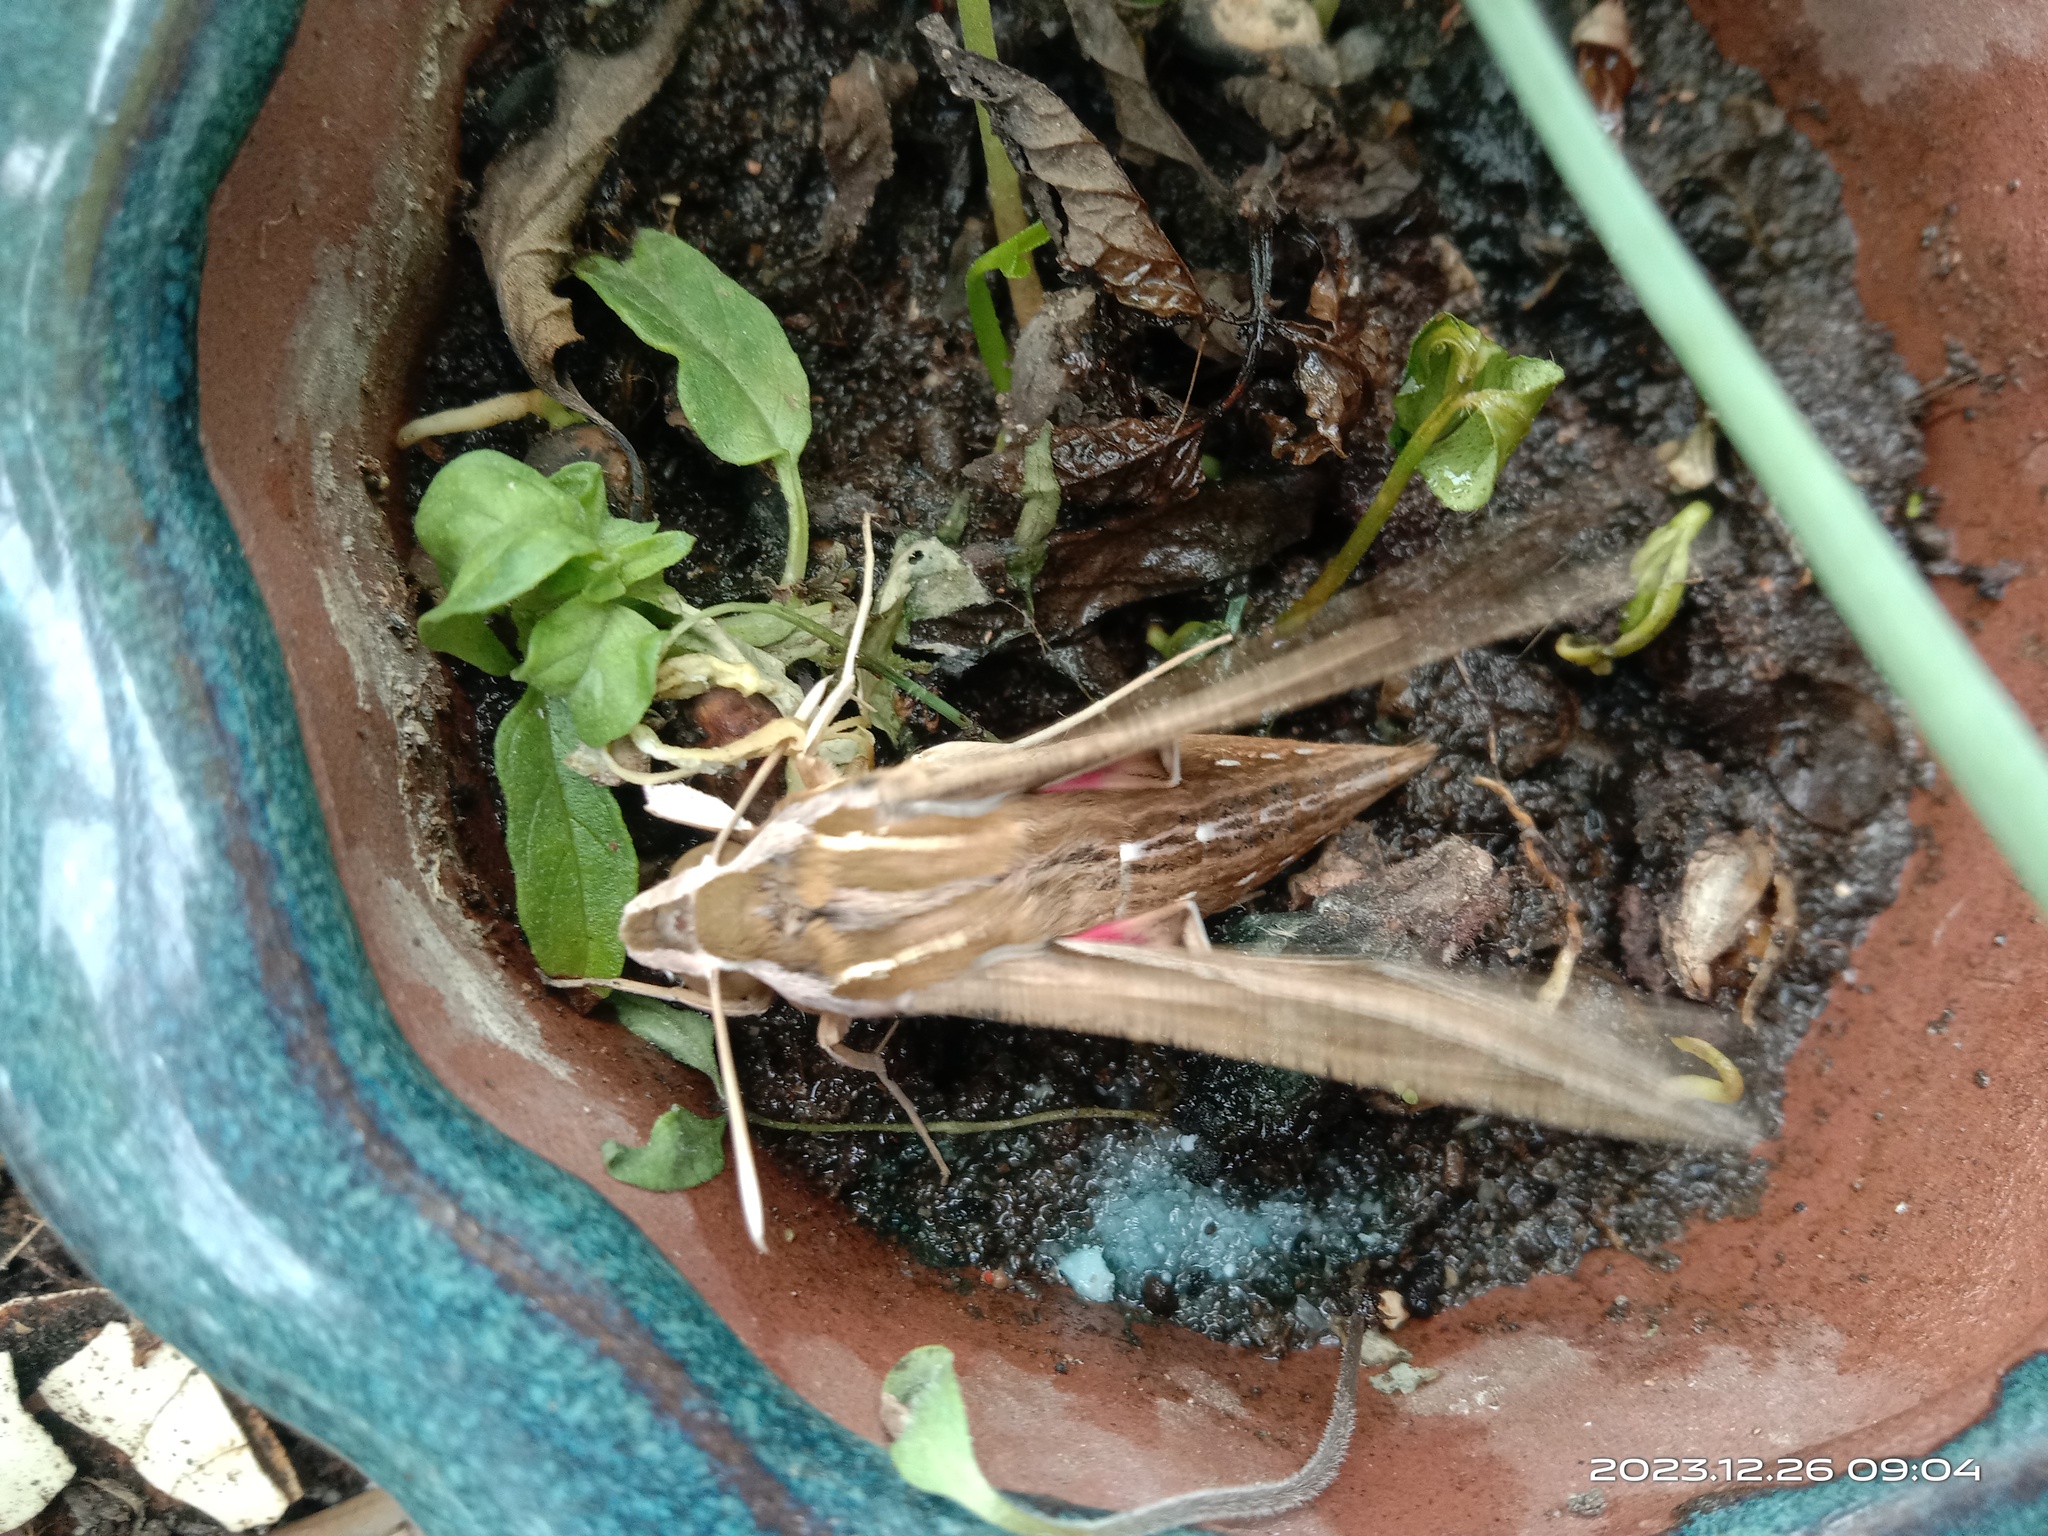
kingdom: Animalia
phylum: Arthropoda
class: Insecta
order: Lepidoptera
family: Sphingidae
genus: Hippotion
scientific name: Hippotion celerio
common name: Silver-striped hawk-moth
